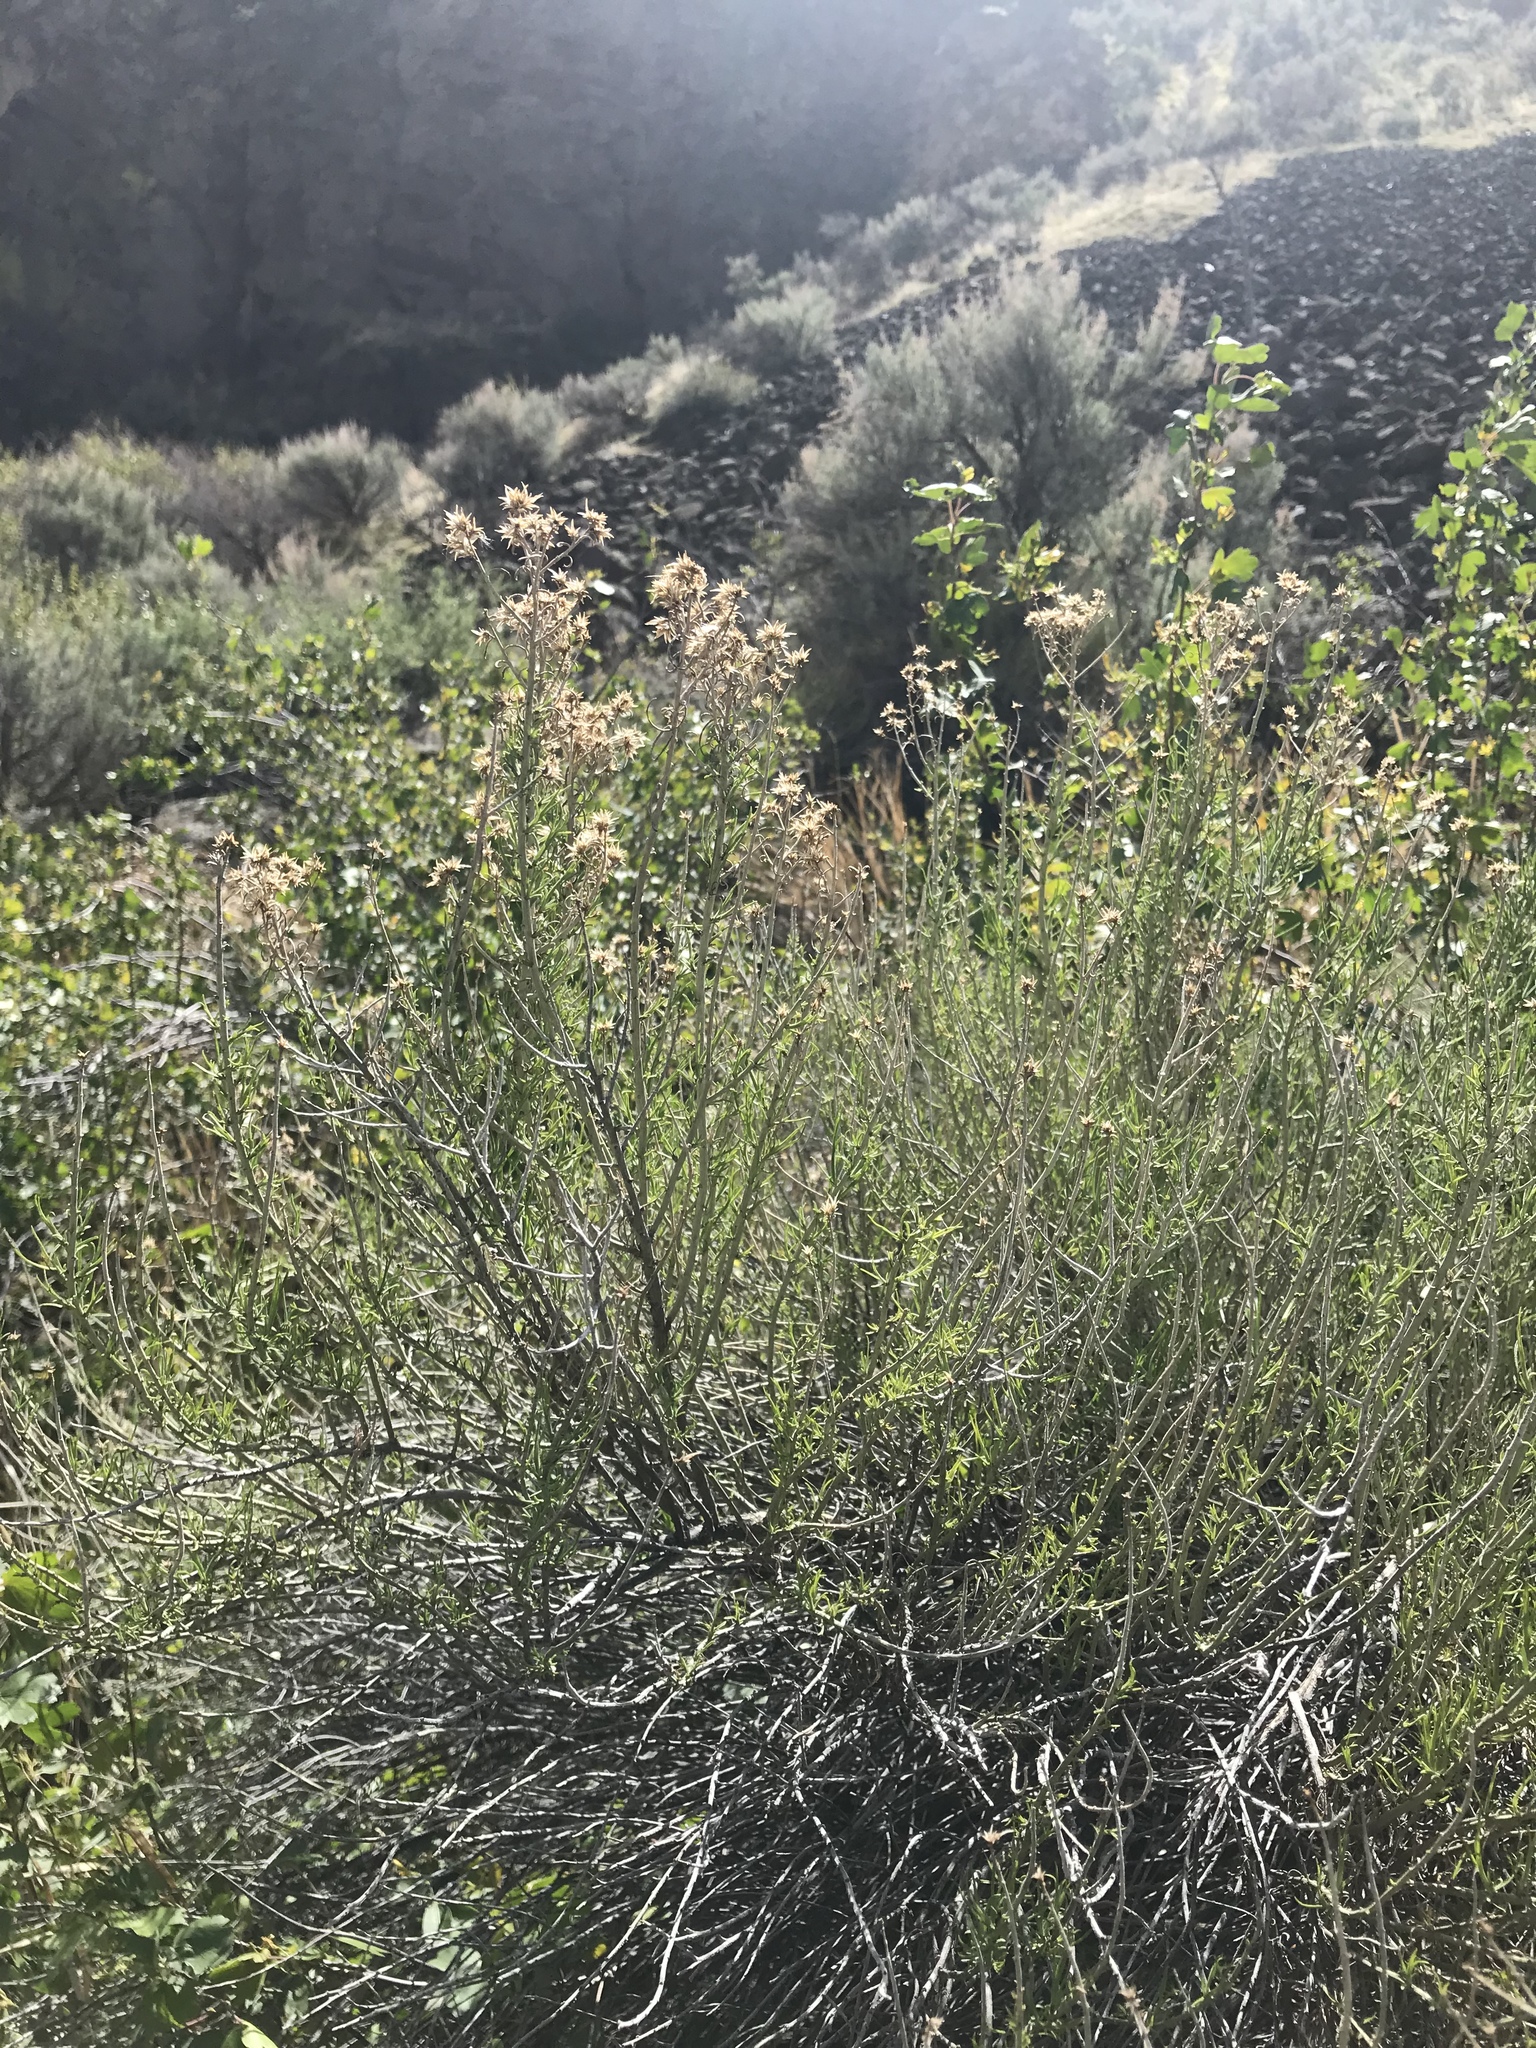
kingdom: Plantae
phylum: Tracheophyta
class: Magnoliopsida
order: Asterales
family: Asteraceae
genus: Ericameria
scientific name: Ericameria nauseosa
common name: Rubber rabbitbrush
